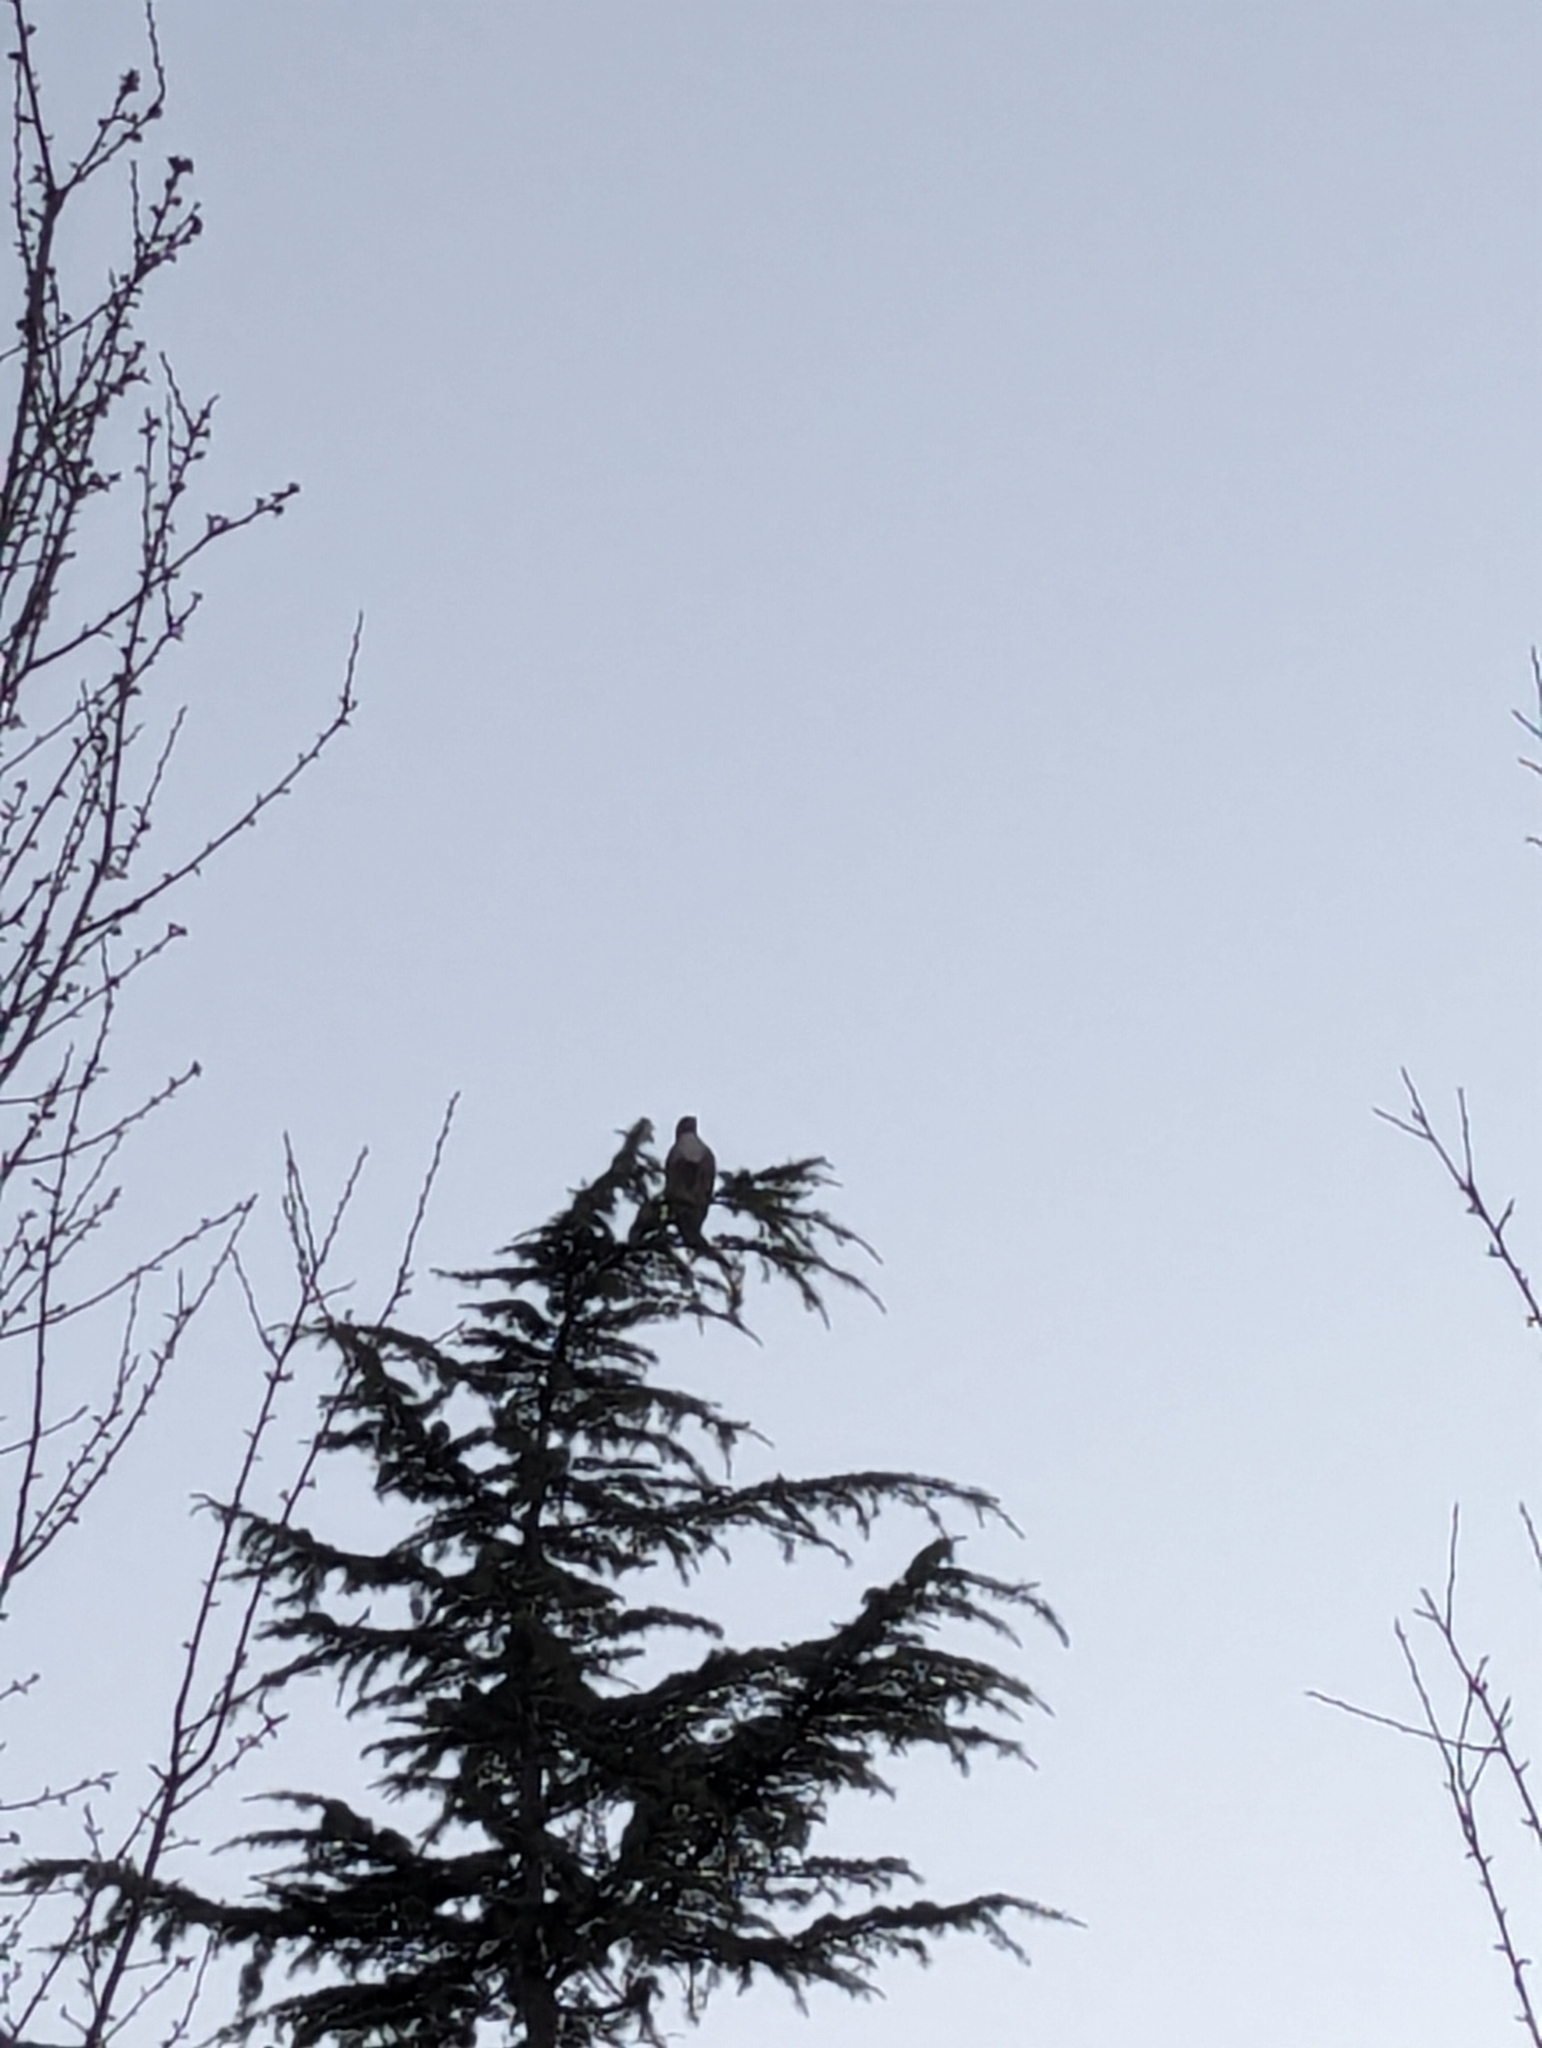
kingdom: Animalia
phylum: Chordata
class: Aves
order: Accipitriformes
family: Accipitridae
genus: Buteo
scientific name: Buteo jamaicensis
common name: Red-tailed hawk
